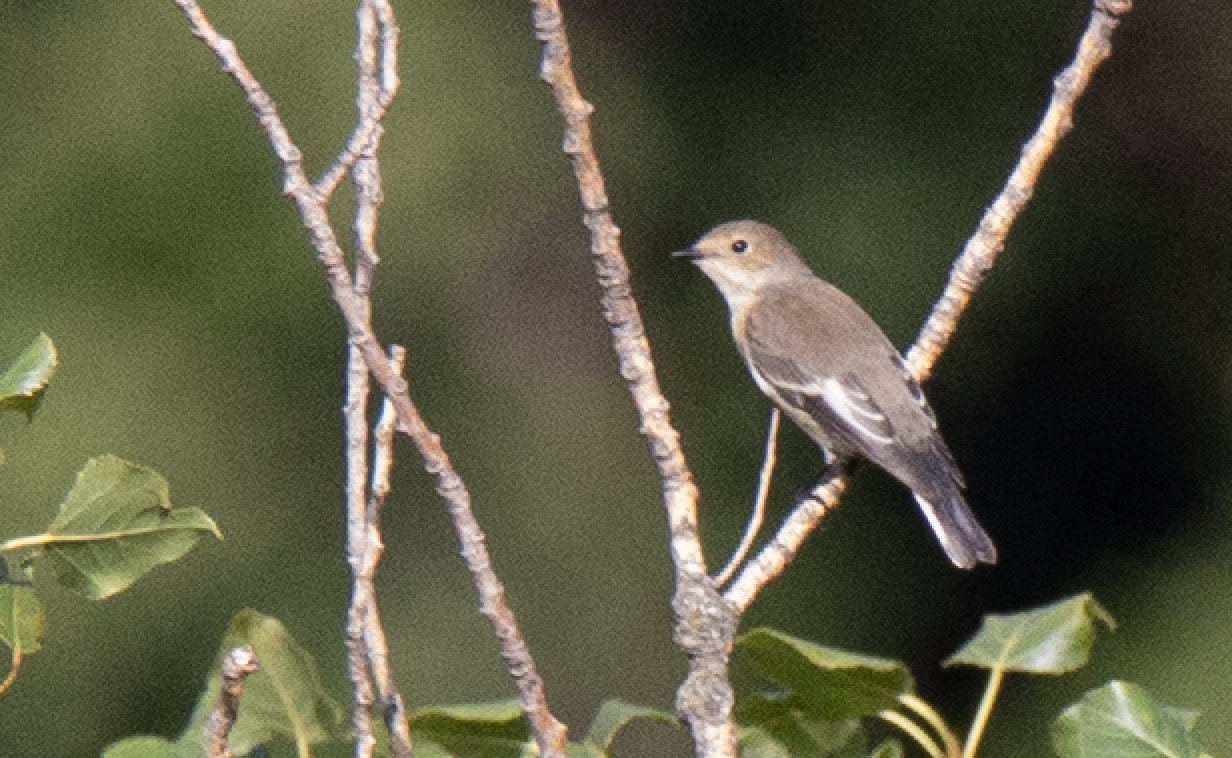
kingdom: Animalia
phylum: Chordata
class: Aves
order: Passeriformes
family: Muscicapidae
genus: Ficedula
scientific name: Ficedula hypoleuca
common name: European pied flycatcher
